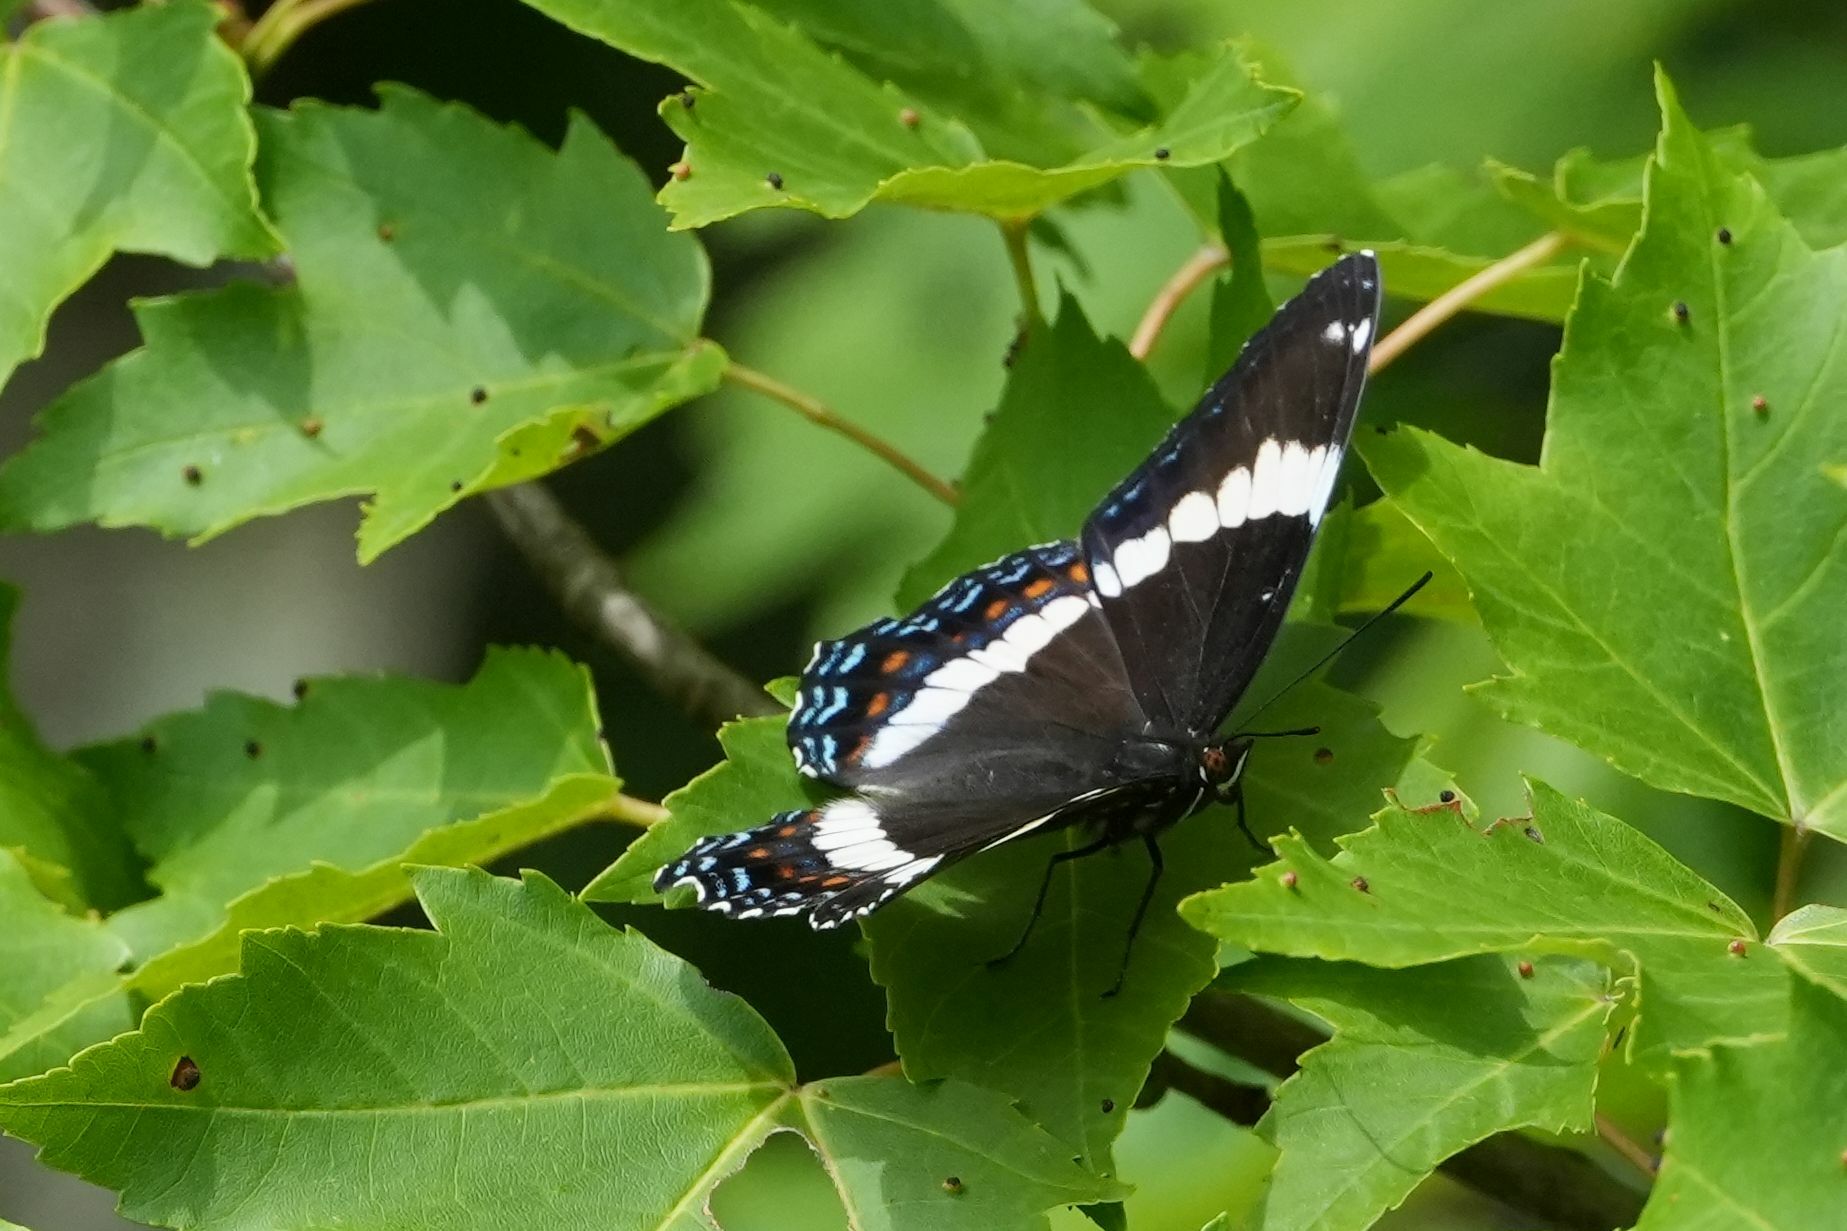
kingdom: Animalia
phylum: Arthropoda
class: Insecta
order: Lepidoptera
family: Nymphalidae
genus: Limenitis
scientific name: Limenitis arthemis
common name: Red-spotted admiral
